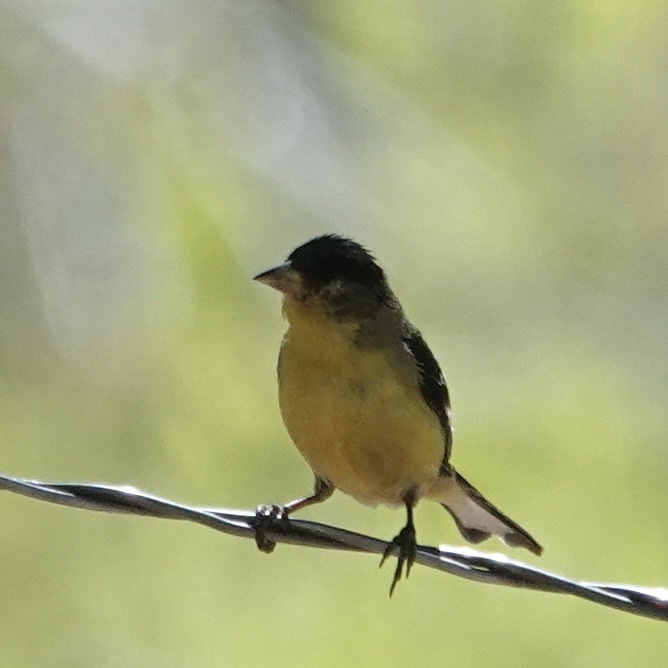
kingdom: Animalia
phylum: Chordata
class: Aves
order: Passeriformes
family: Fringillidae
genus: Spinus
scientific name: Spinus psaltria
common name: Lesser goldfinch
